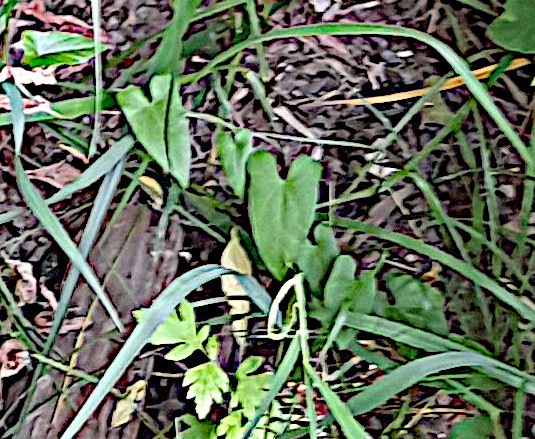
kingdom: Plantae
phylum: Tracheophyta
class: Magnoliopsida
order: Solanales
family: Convolvulaceae
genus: Convolvulus
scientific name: Convolvulus arvensis
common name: Field bindweed
